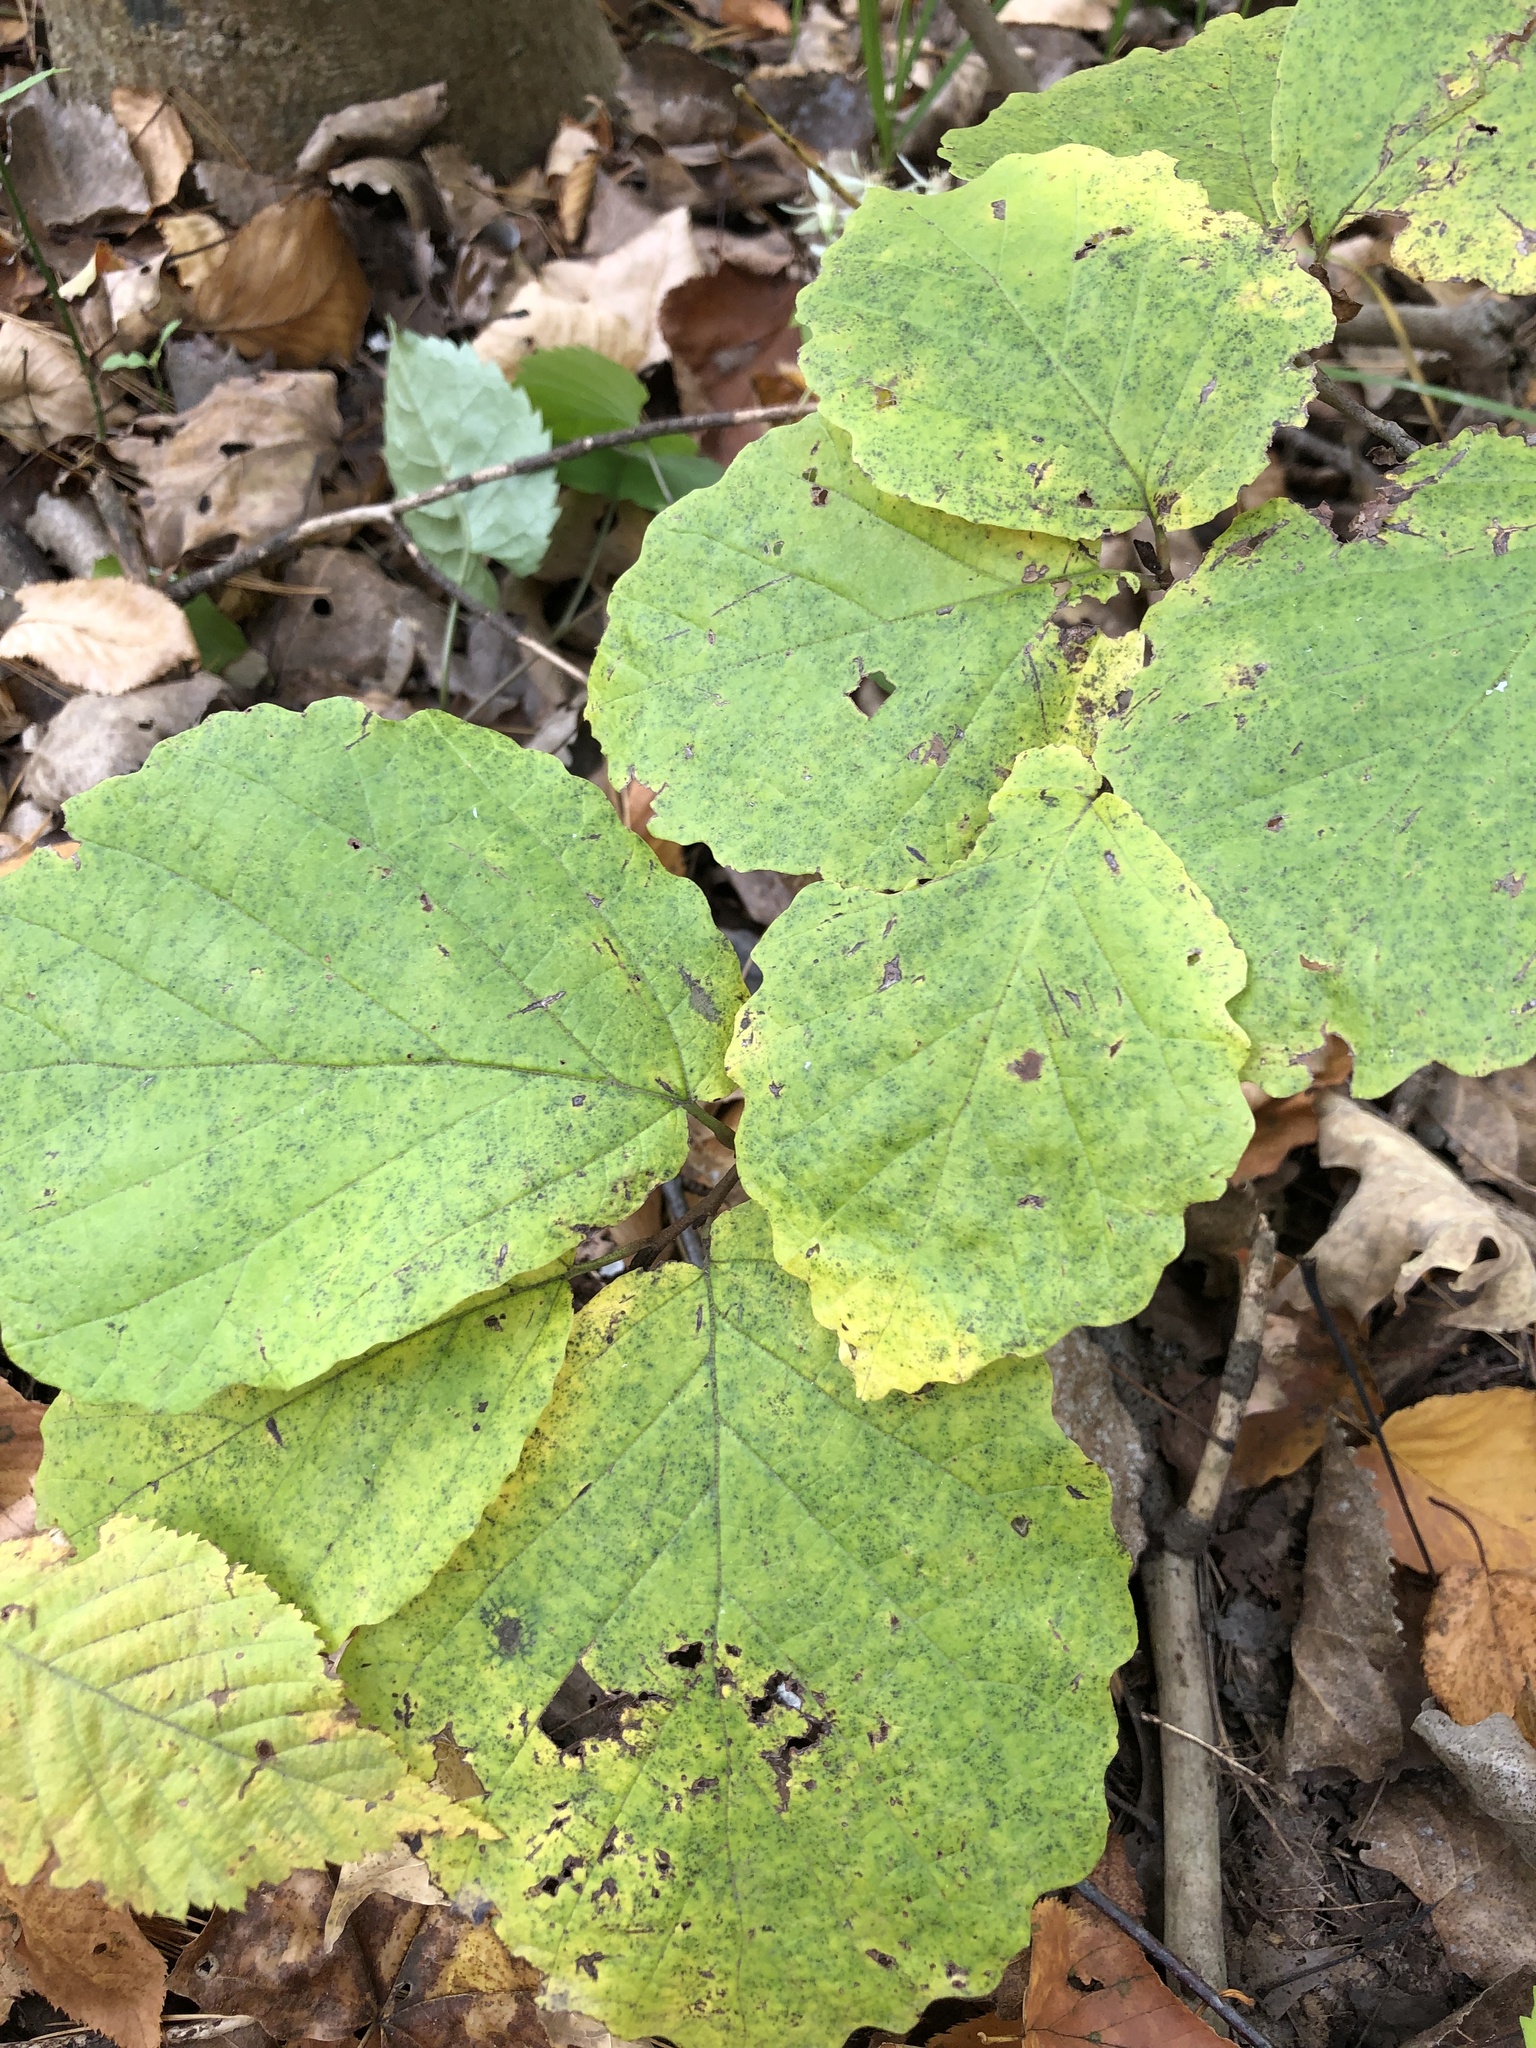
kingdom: Plantae
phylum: Tracheophyta
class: Magnoliopsida
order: Saxifragales
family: Hamamelidaceae
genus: Hamamelis
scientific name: Hamamelis virginiana
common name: Witch-hazel
